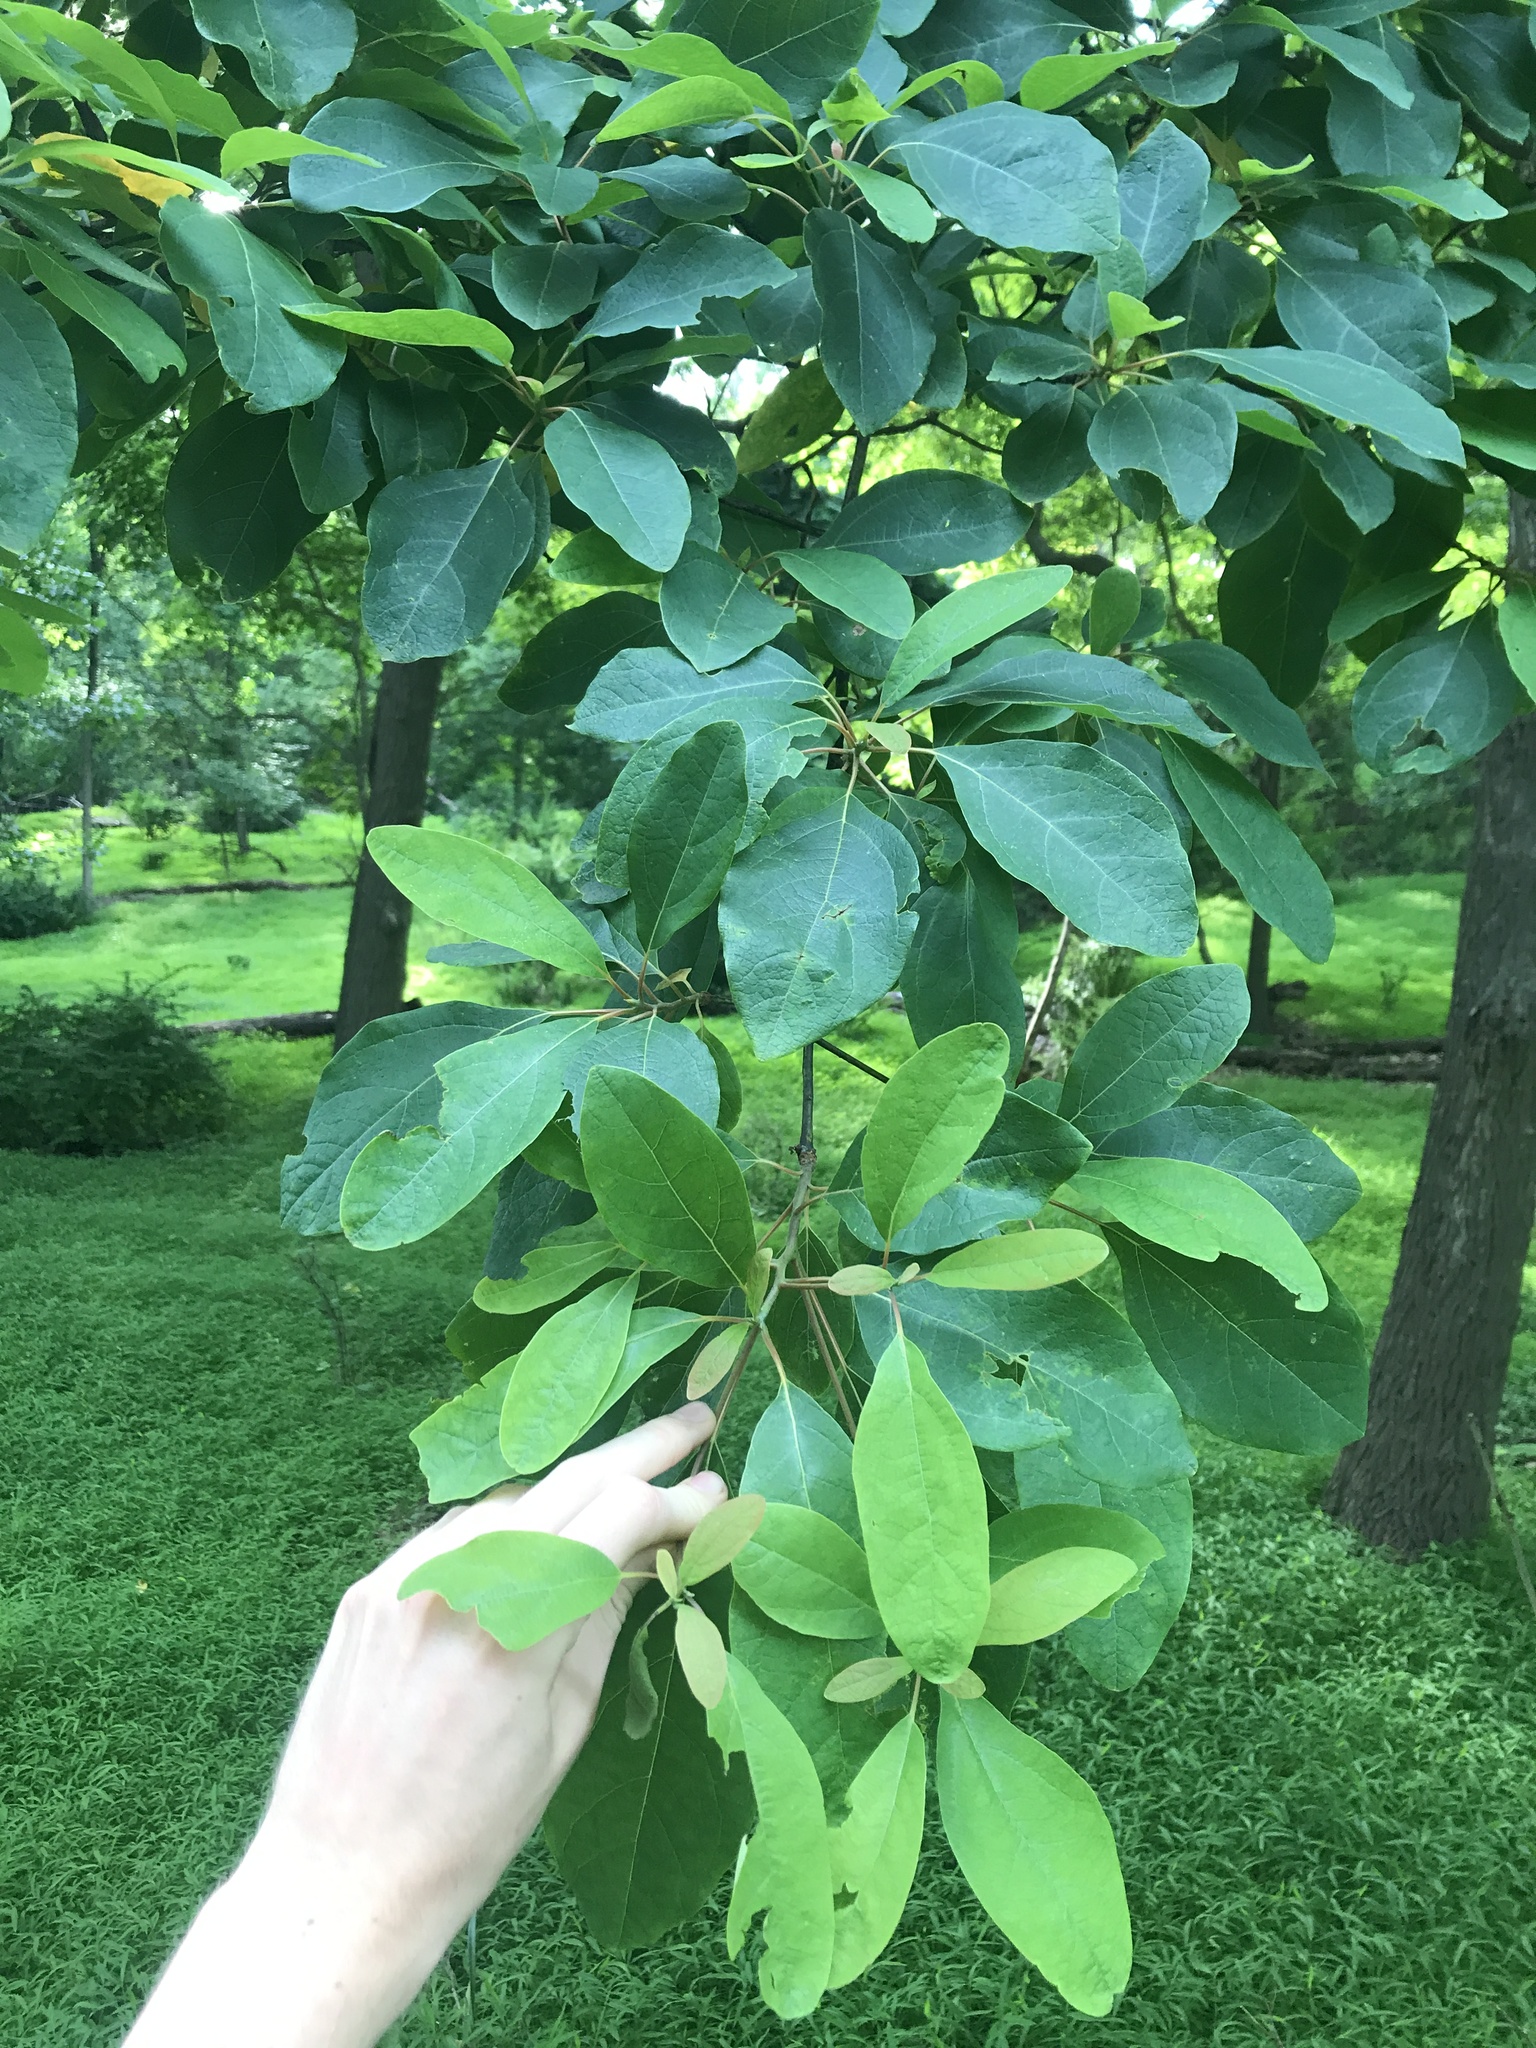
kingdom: Plantae
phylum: Tracheophyta
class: Magnoliopsida
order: Laurales
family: Lauraceae
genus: Sassafras
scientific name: Sassafras albidum
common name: Sassafras
